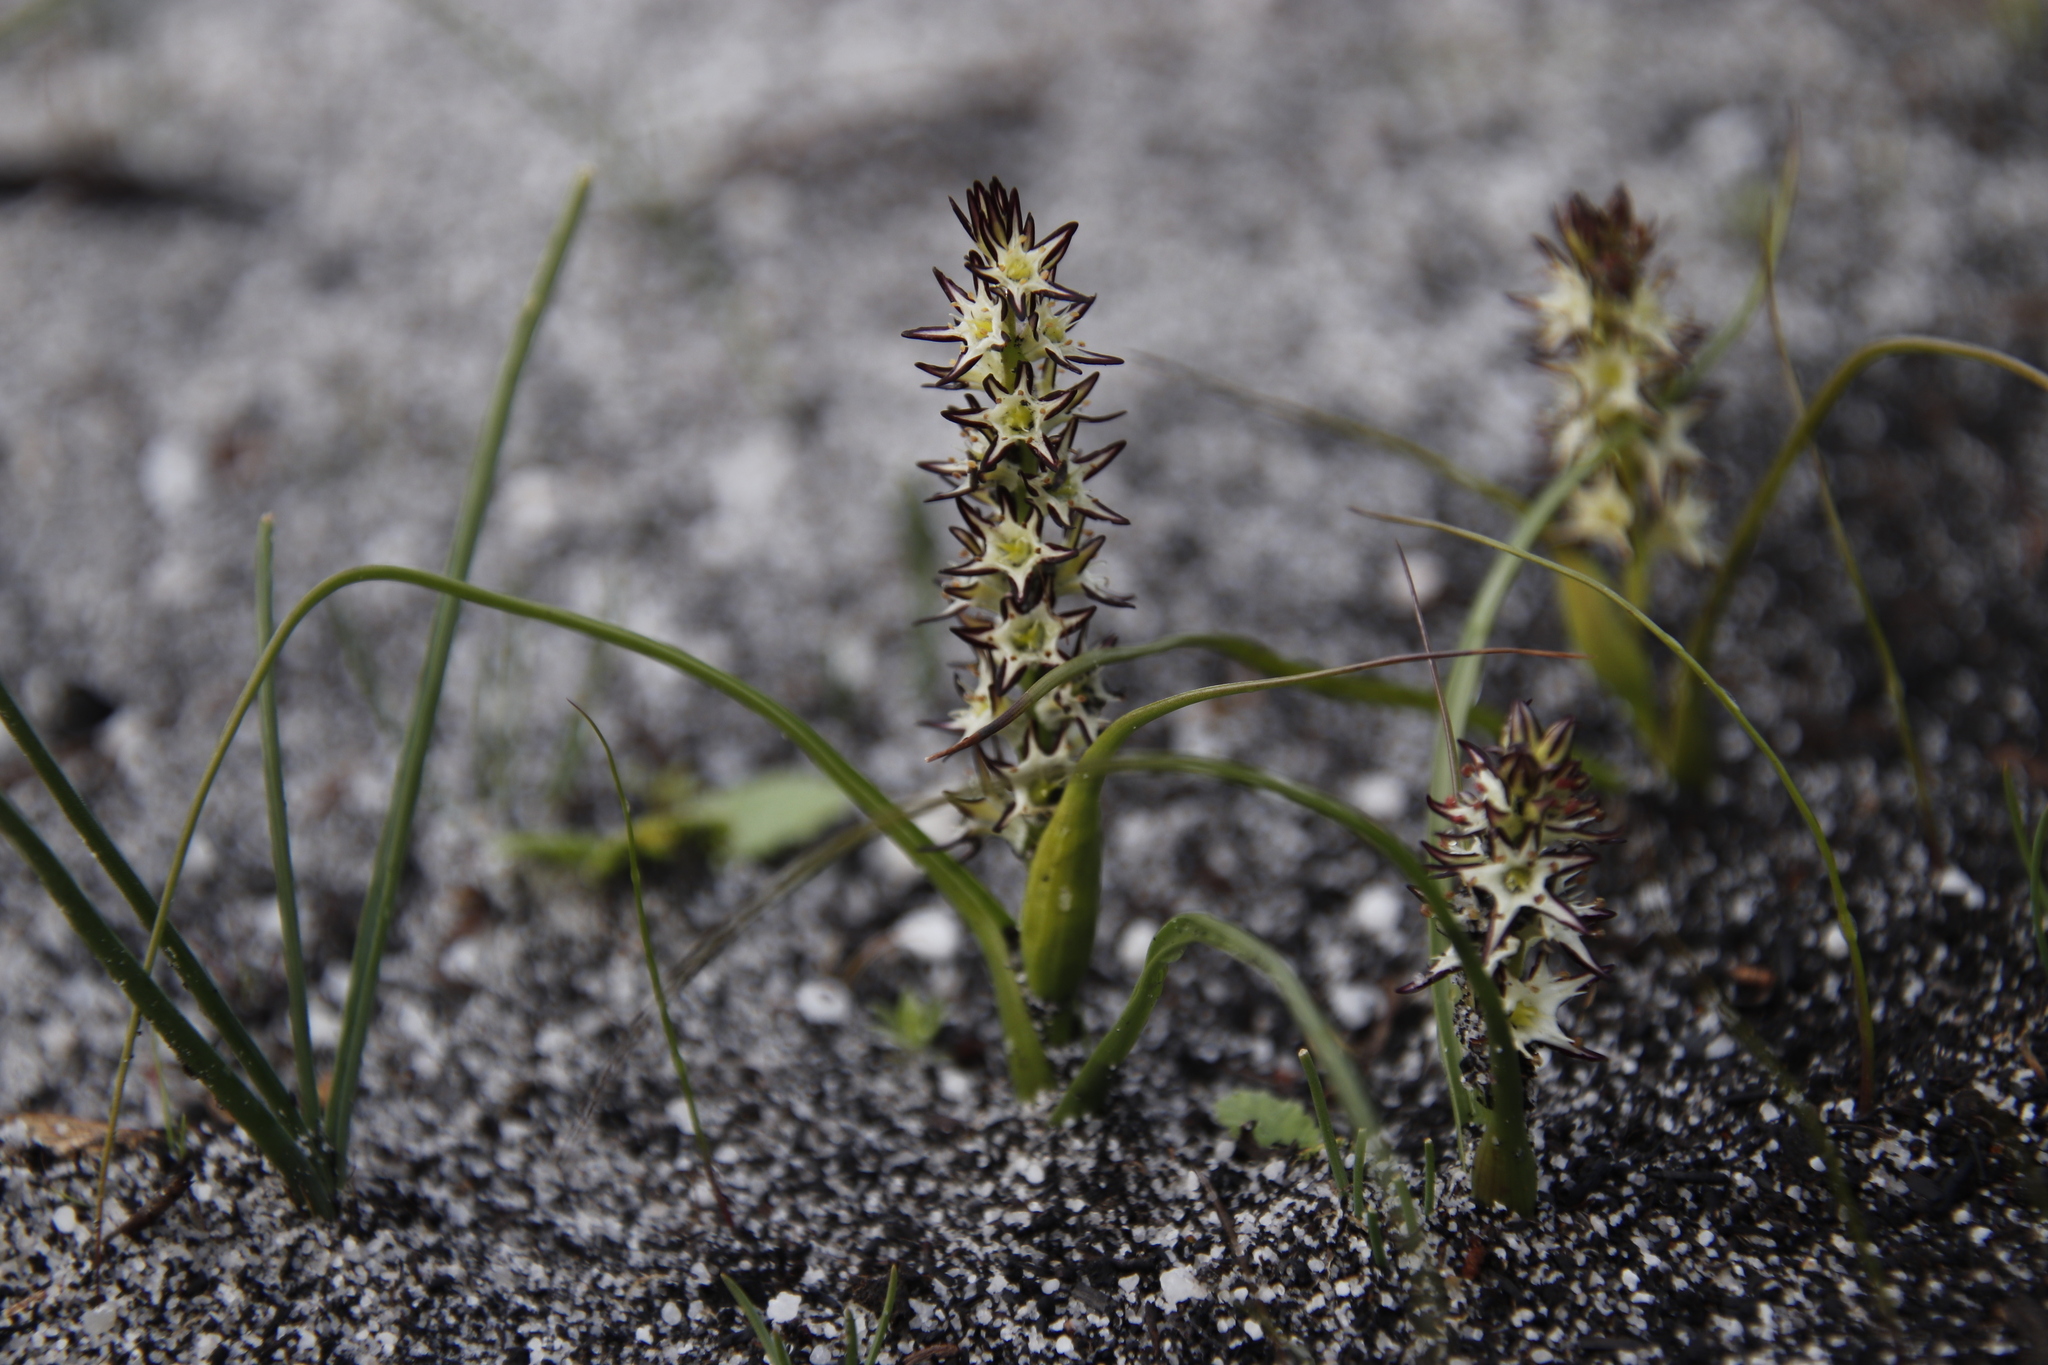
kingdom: Plantae
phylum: Tracheophyta
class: Liliopsida
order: Liliales
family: Colchicaceae
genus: Wurmbea
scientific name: Wurmbea hiemalis
